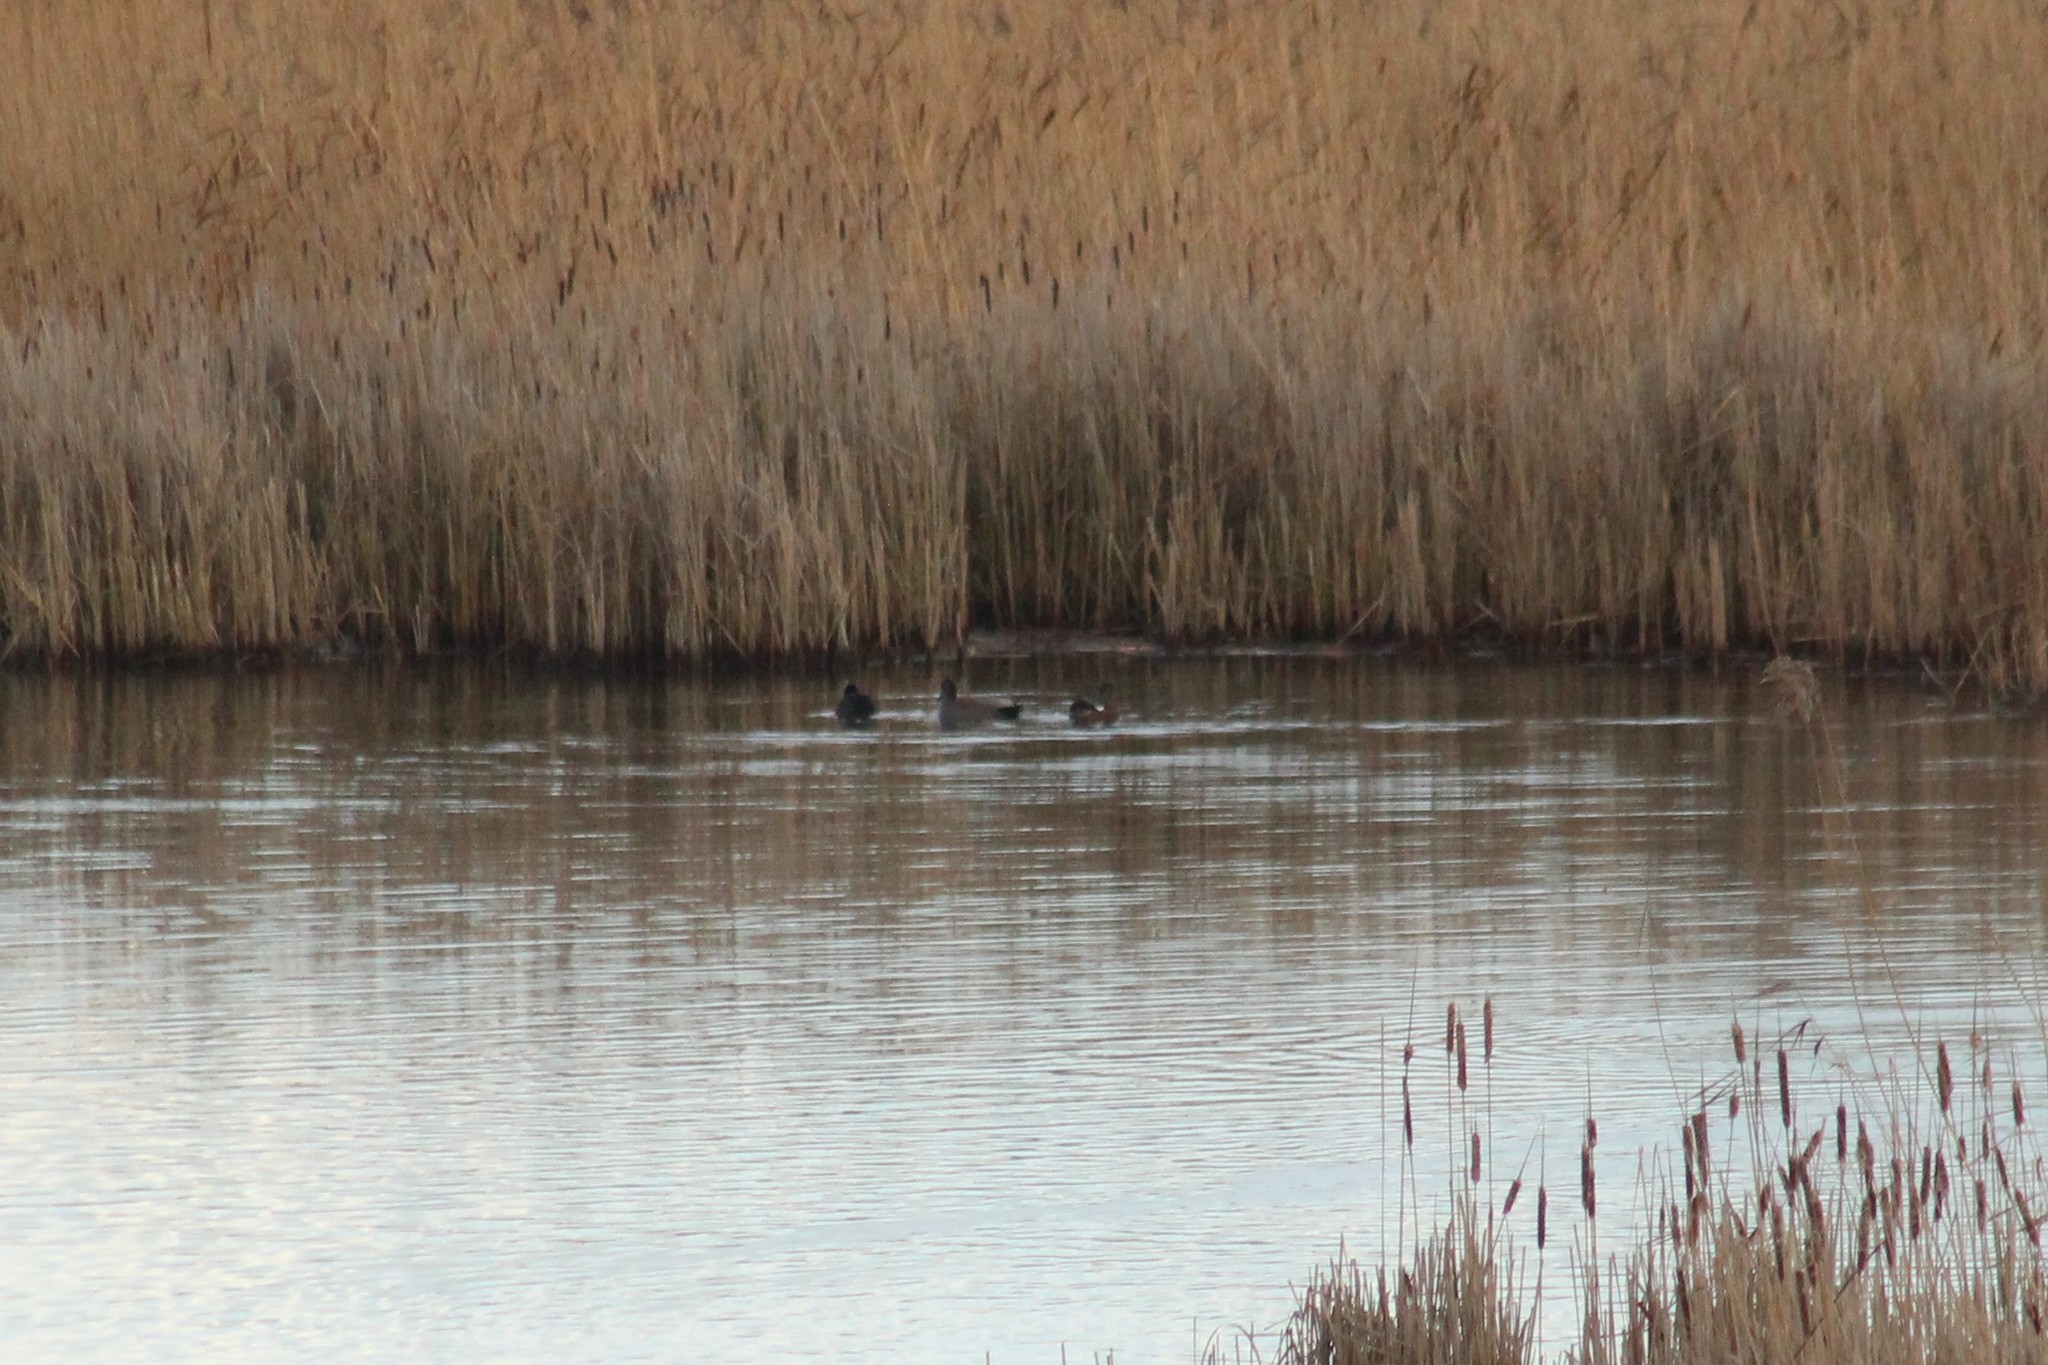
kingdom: Animalia
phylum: Chordata
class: Aves
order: Anseriformes
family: Anatidae
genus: Mareca
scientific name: Mareca strepera
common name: Gadwall
